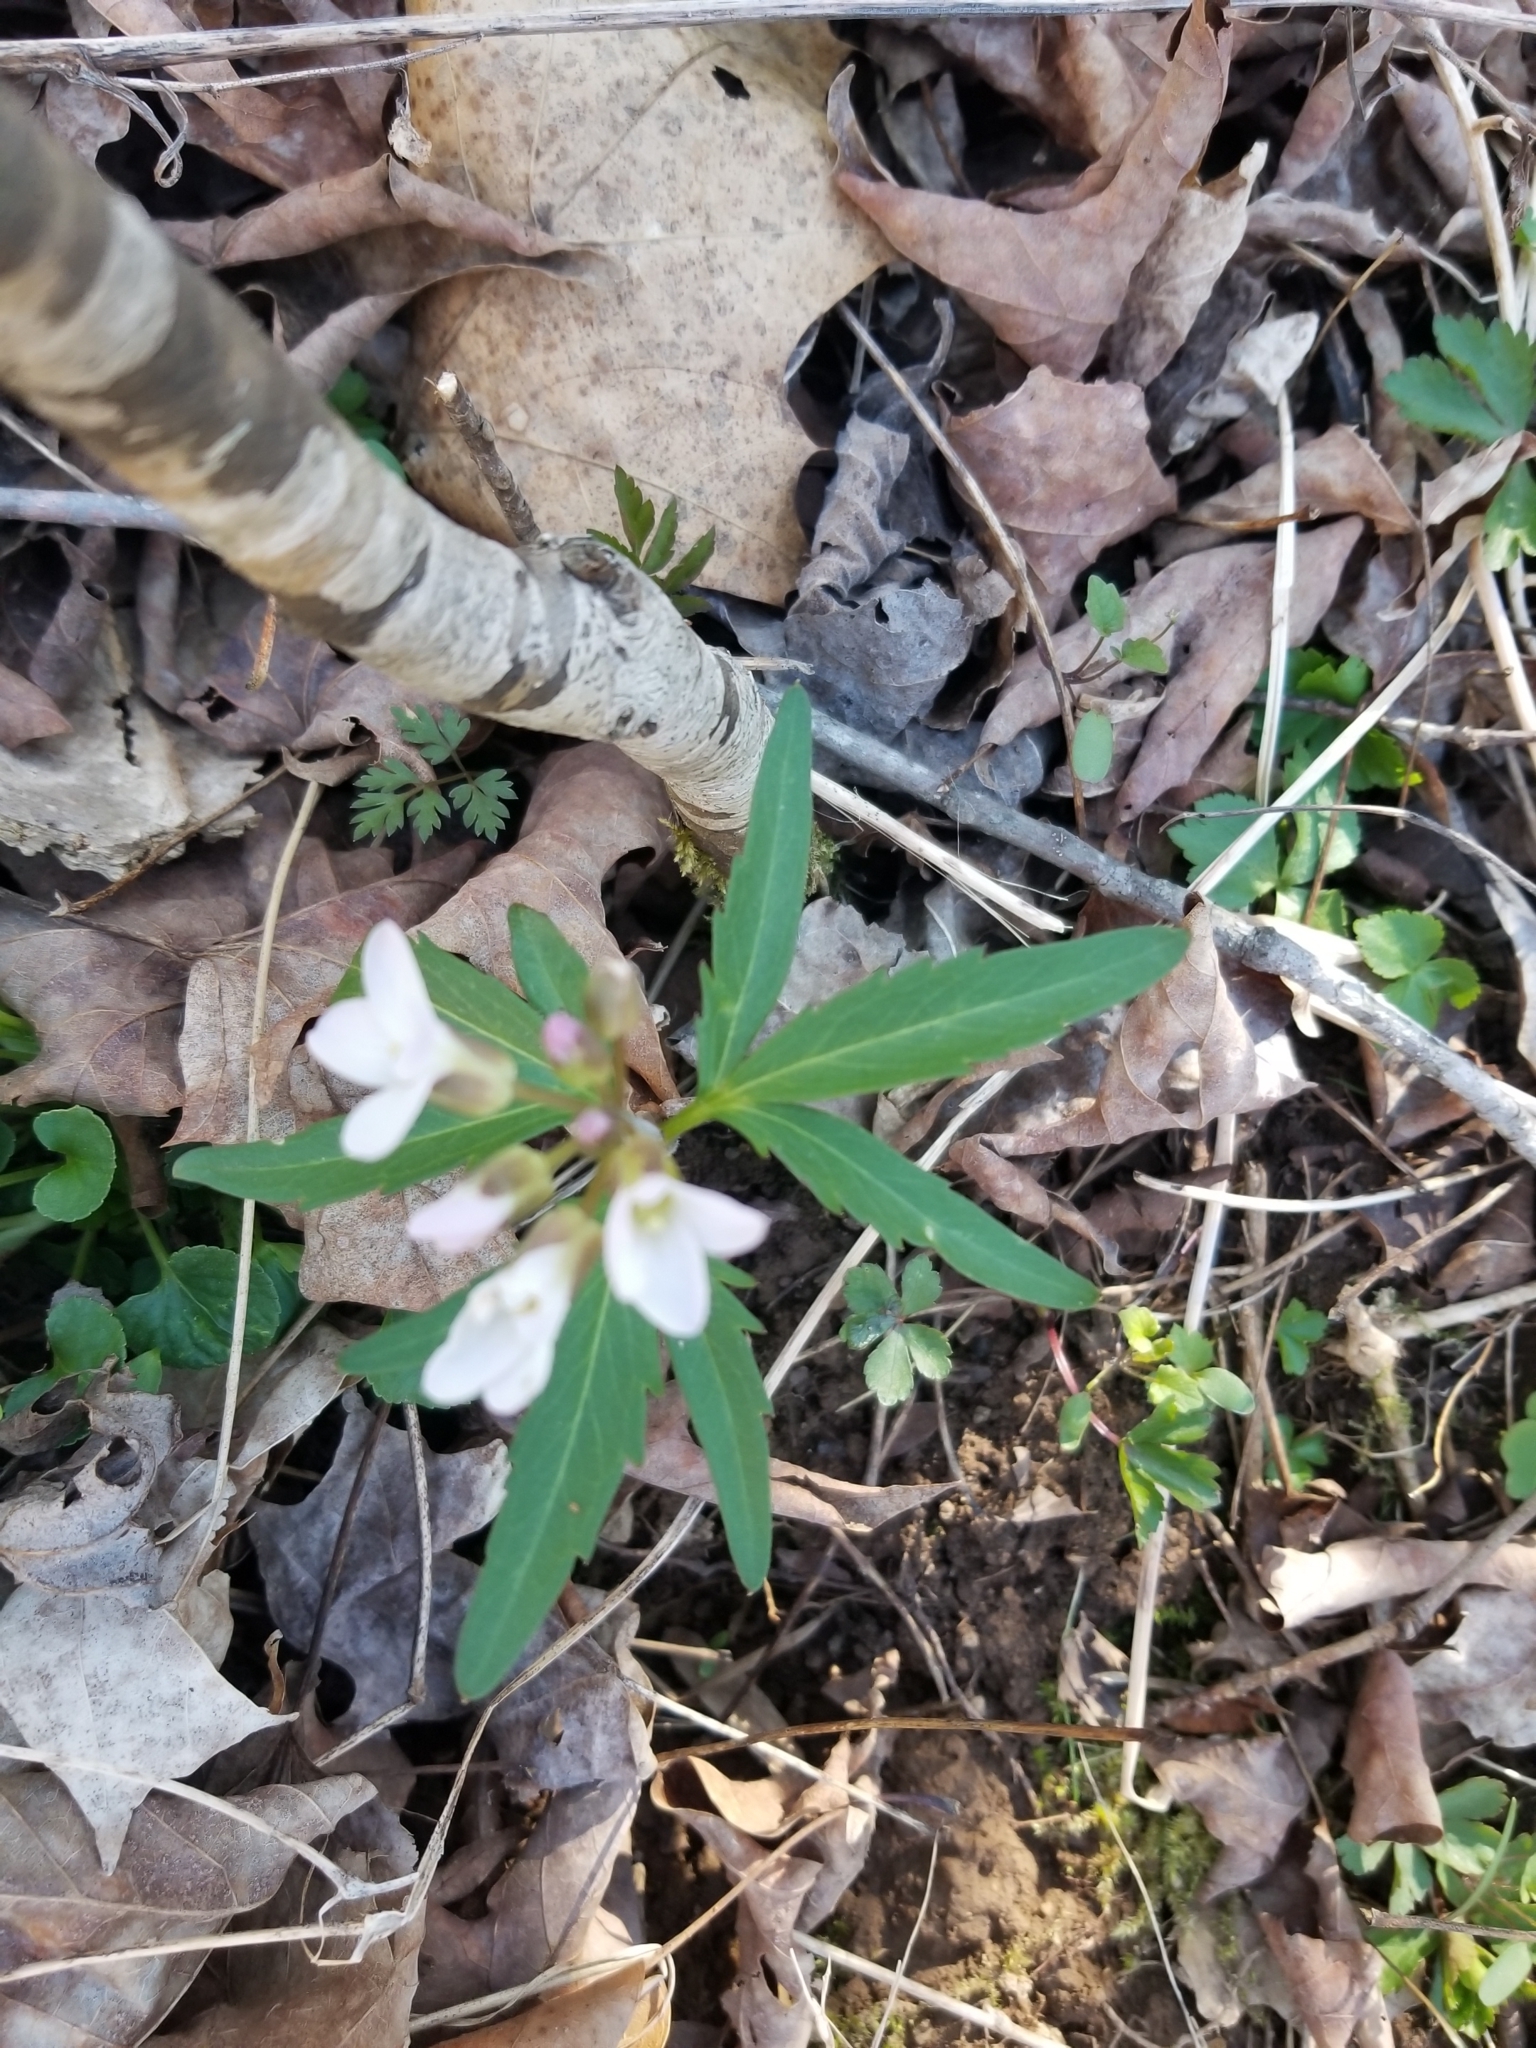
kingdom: Plantae
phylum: Tracheophyta
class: Magnoliopsida
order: Brassicales
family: Brassicaceae
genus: Cardamine
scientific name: Cardamine concatenata
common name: Cut-leaf toothcup
